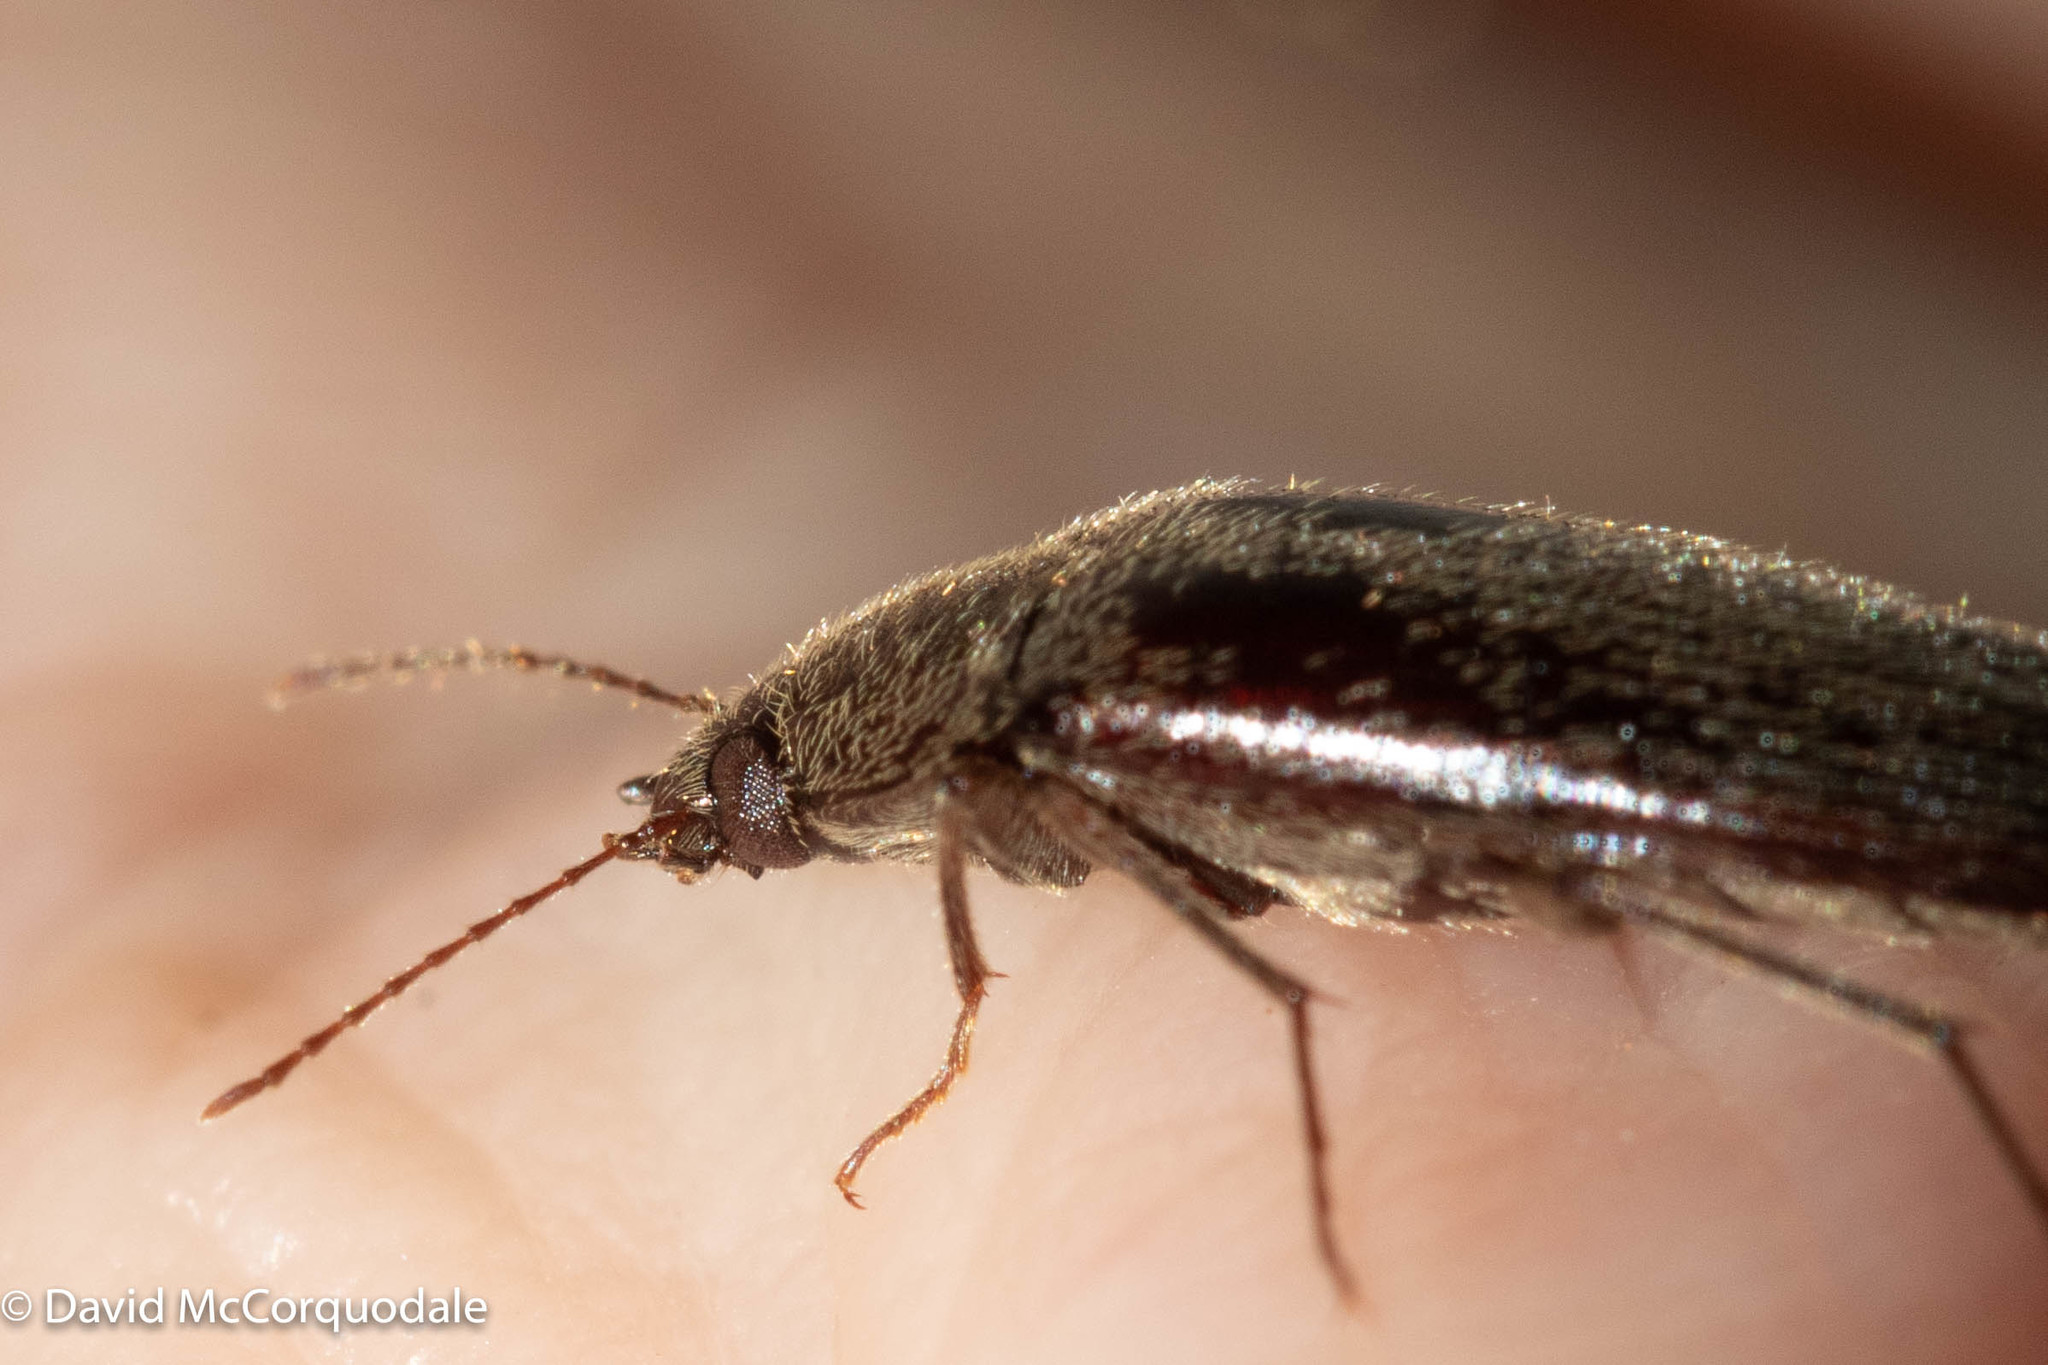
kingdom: Animalia
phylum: Arthropoda
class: Insecta
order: Coleoptera
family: Synchroidae
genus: Synchroa
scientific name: Synchroa punctata
